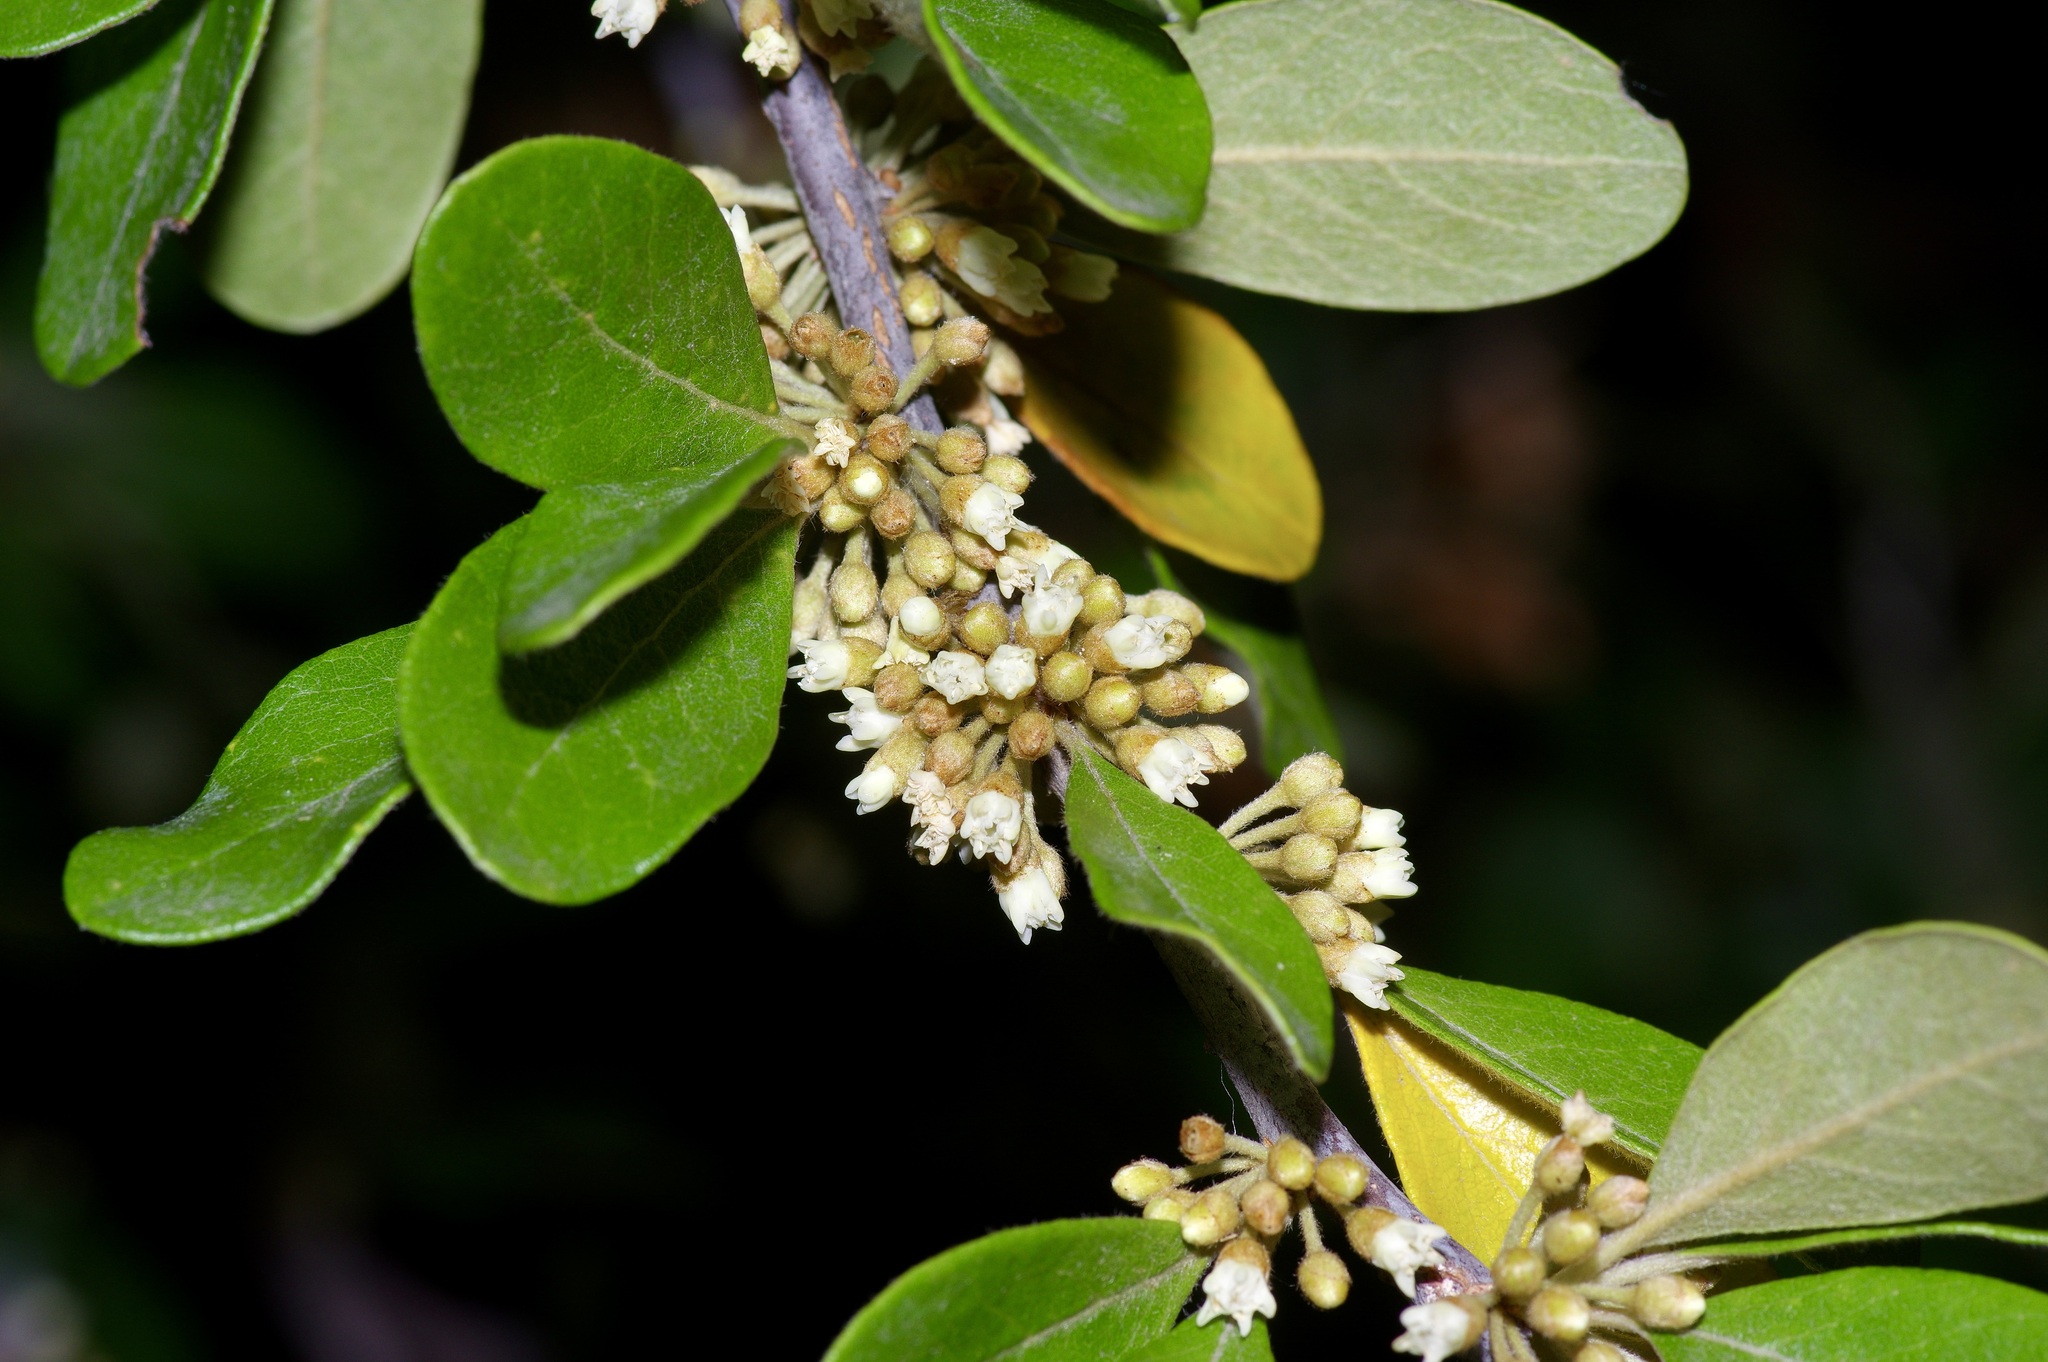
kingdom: Plantae
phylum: Tracheophyta
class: Magnoliopsida
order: Ericales
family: Sapotaceae
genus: Sideroxylon
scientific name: Sideroxylon lanuginosum
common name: Chittamwood
